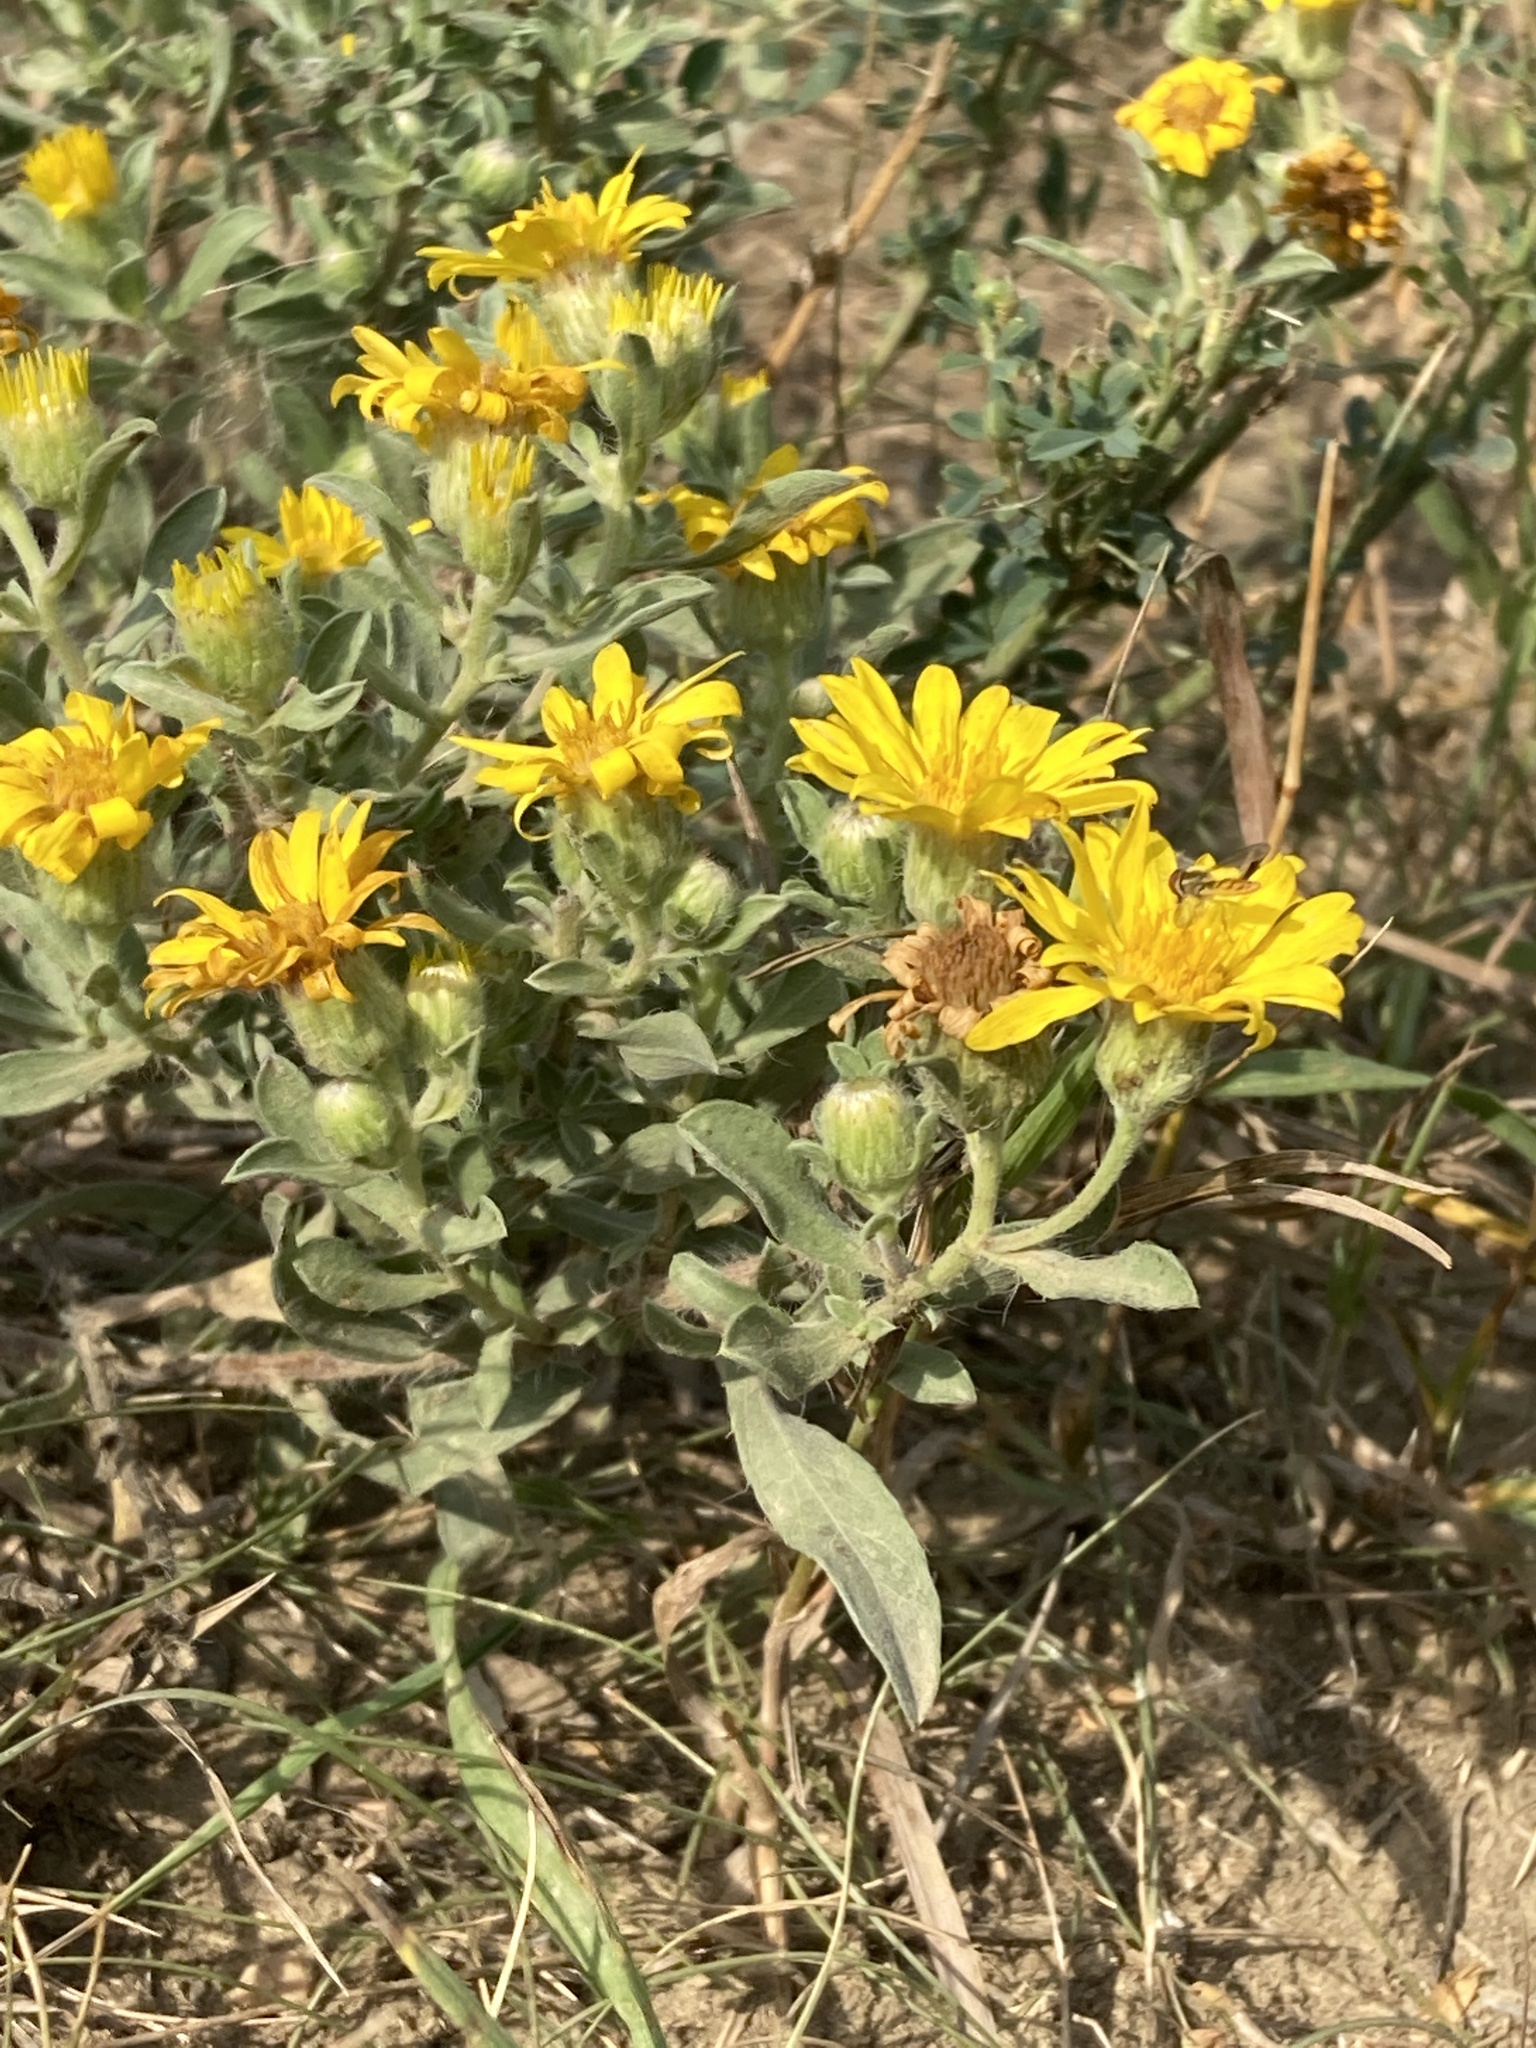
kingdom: Plantae
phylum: Tracheophyta
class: Magnoliopsida
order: Asterales
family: Asteraceae
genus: Heterotheca
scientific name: Heterotheca villosa
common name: Hairy false goldenaster
